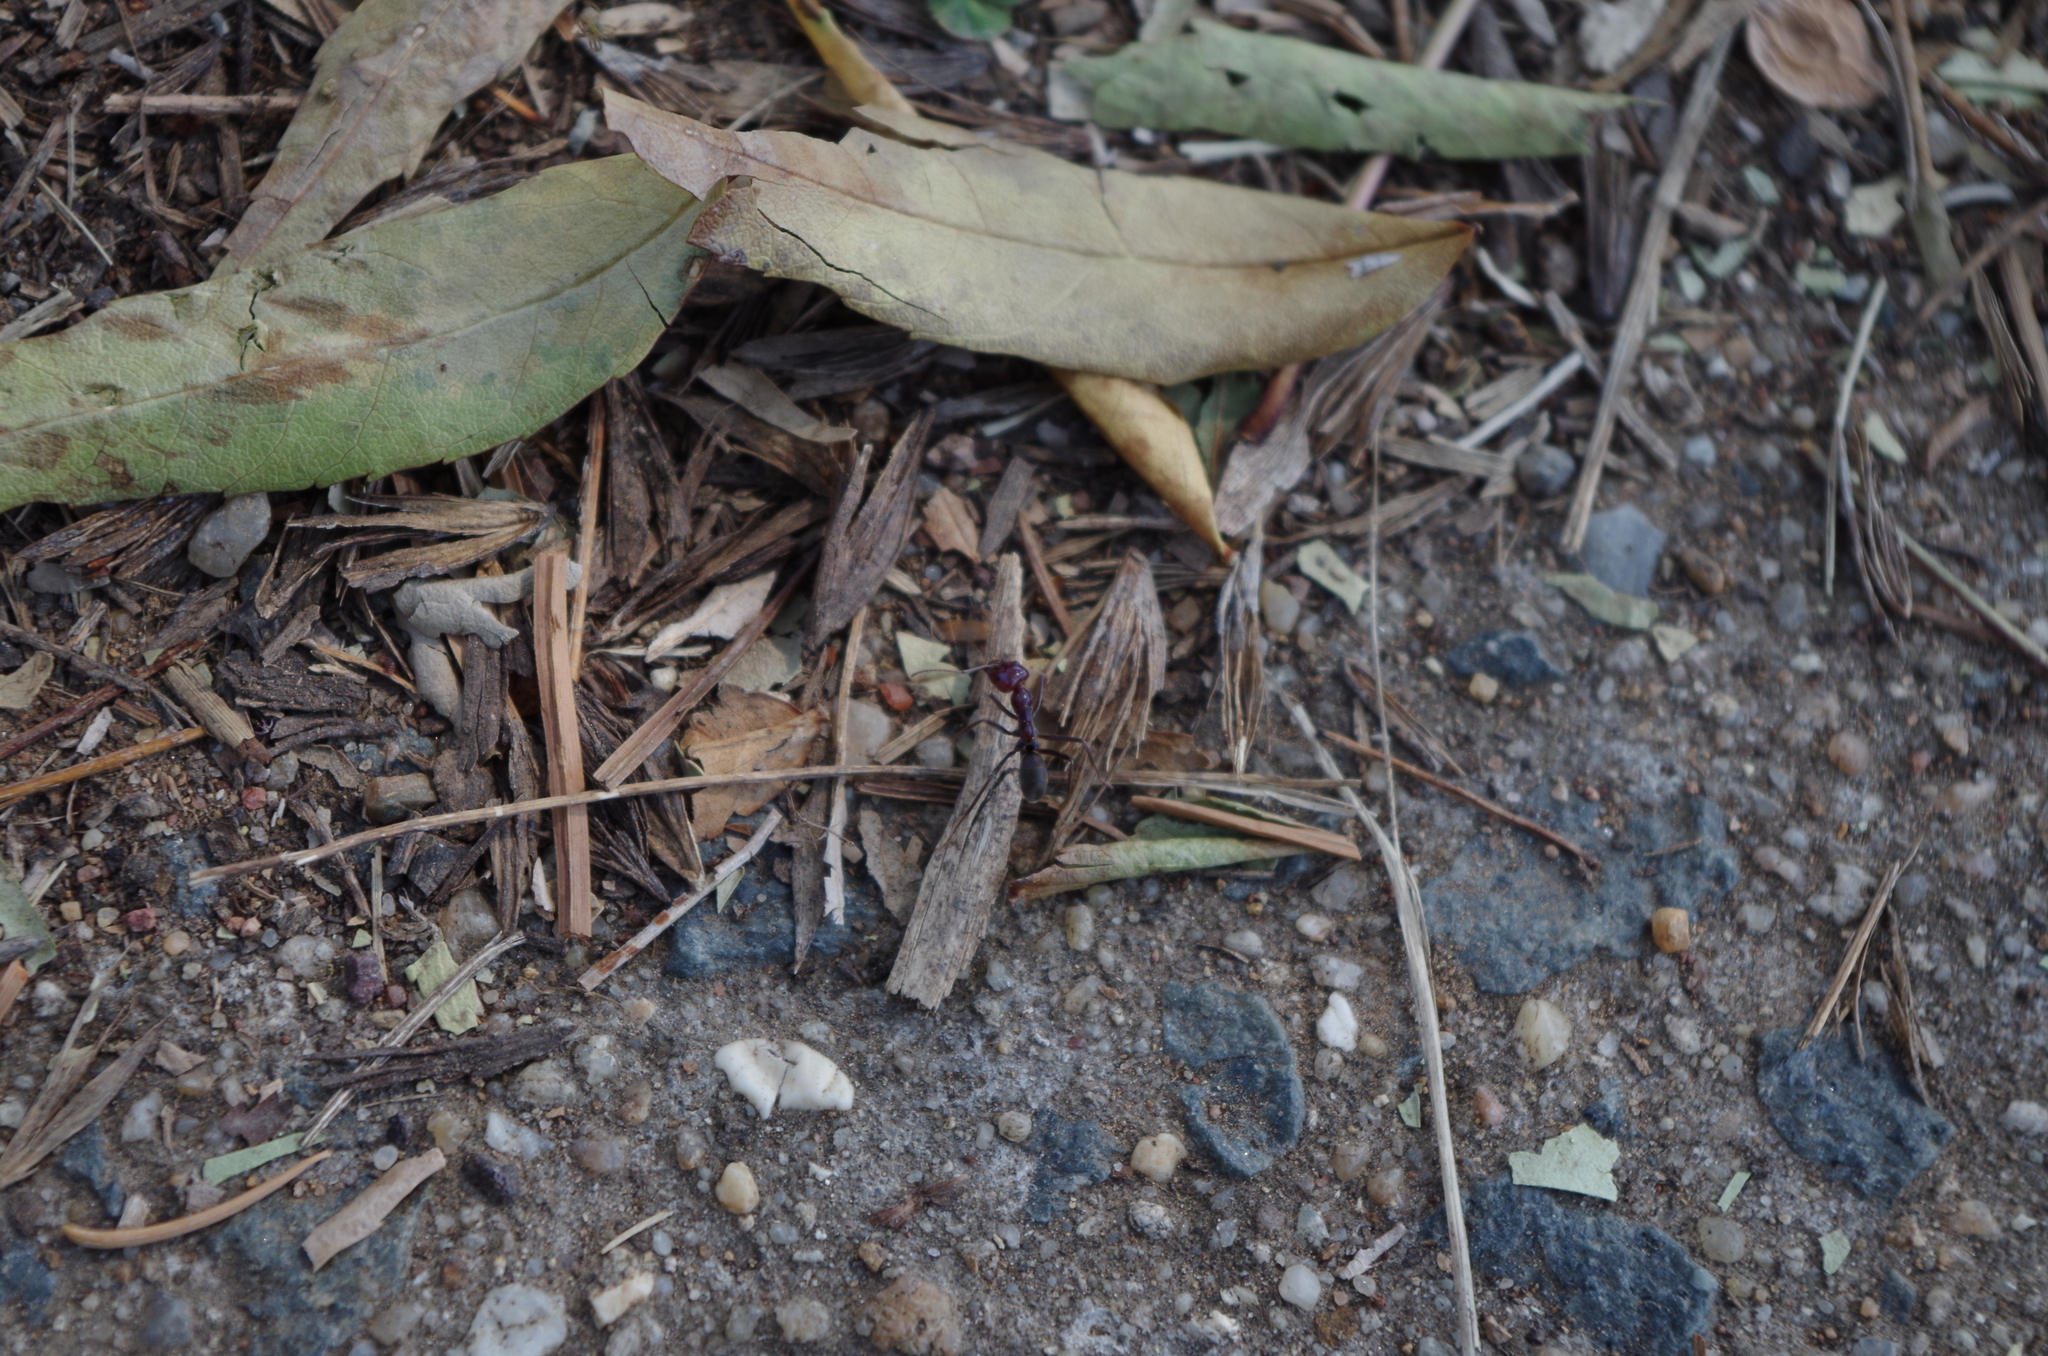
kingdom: Animalia
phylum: Arthropoda
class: Insecta
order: Hymenoptera
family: Formicidae
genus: Iridomyrmex
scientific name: Iridomyrmex purpureus
